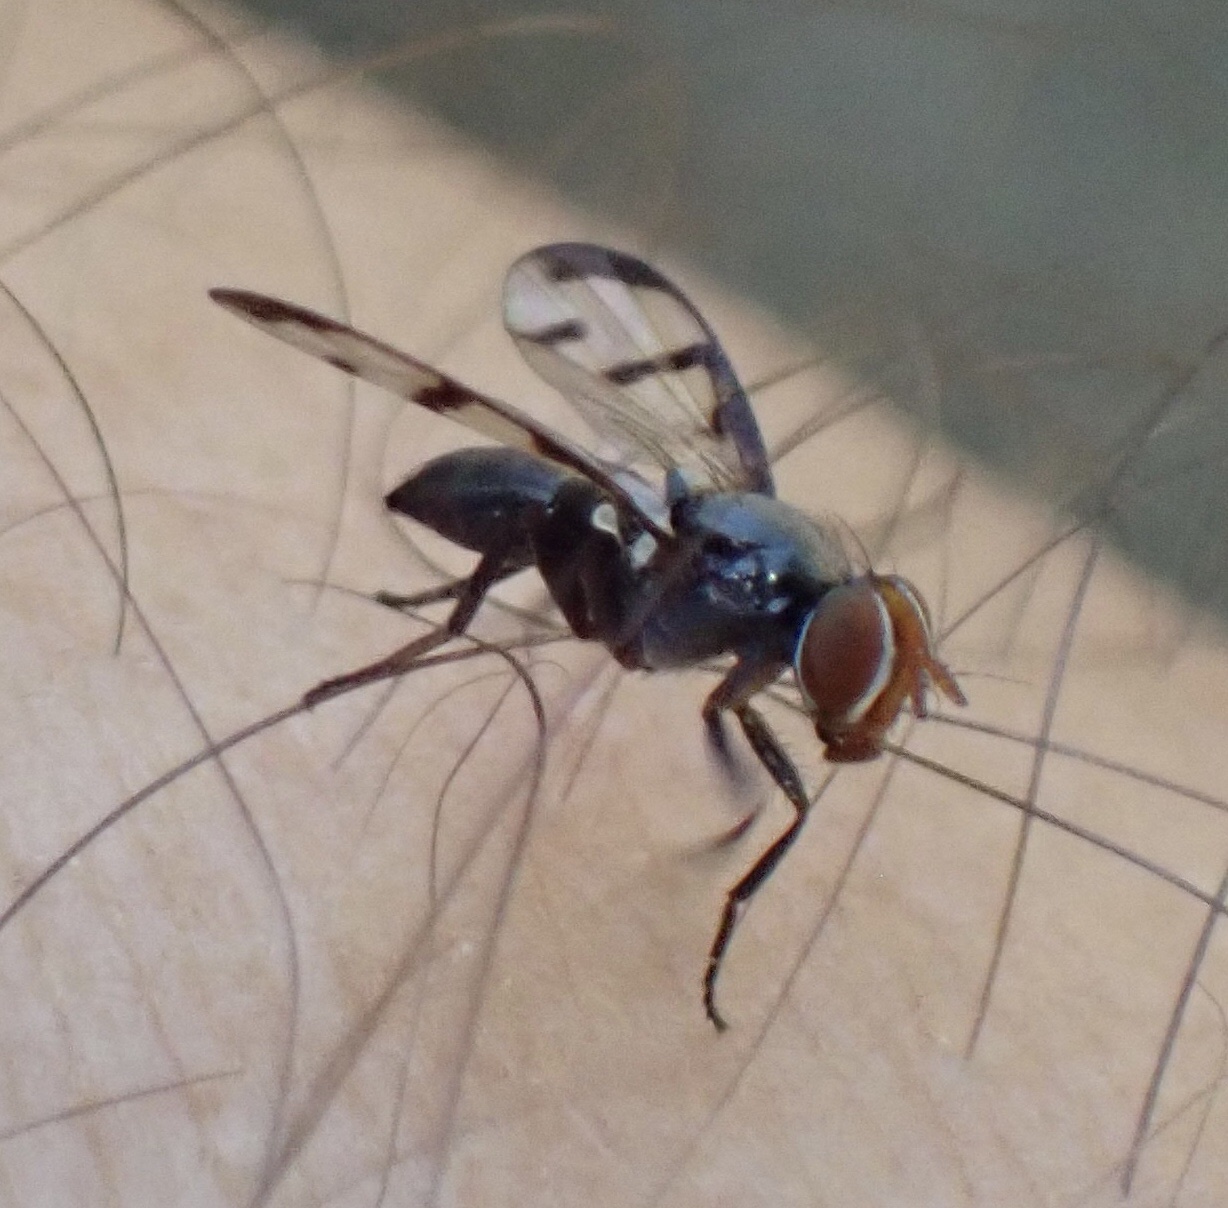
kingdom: Animalia
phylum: Arthropoda
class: Insecta
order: Diptera
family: Ulidiidae
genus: Herina
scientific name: Herina nigrina
